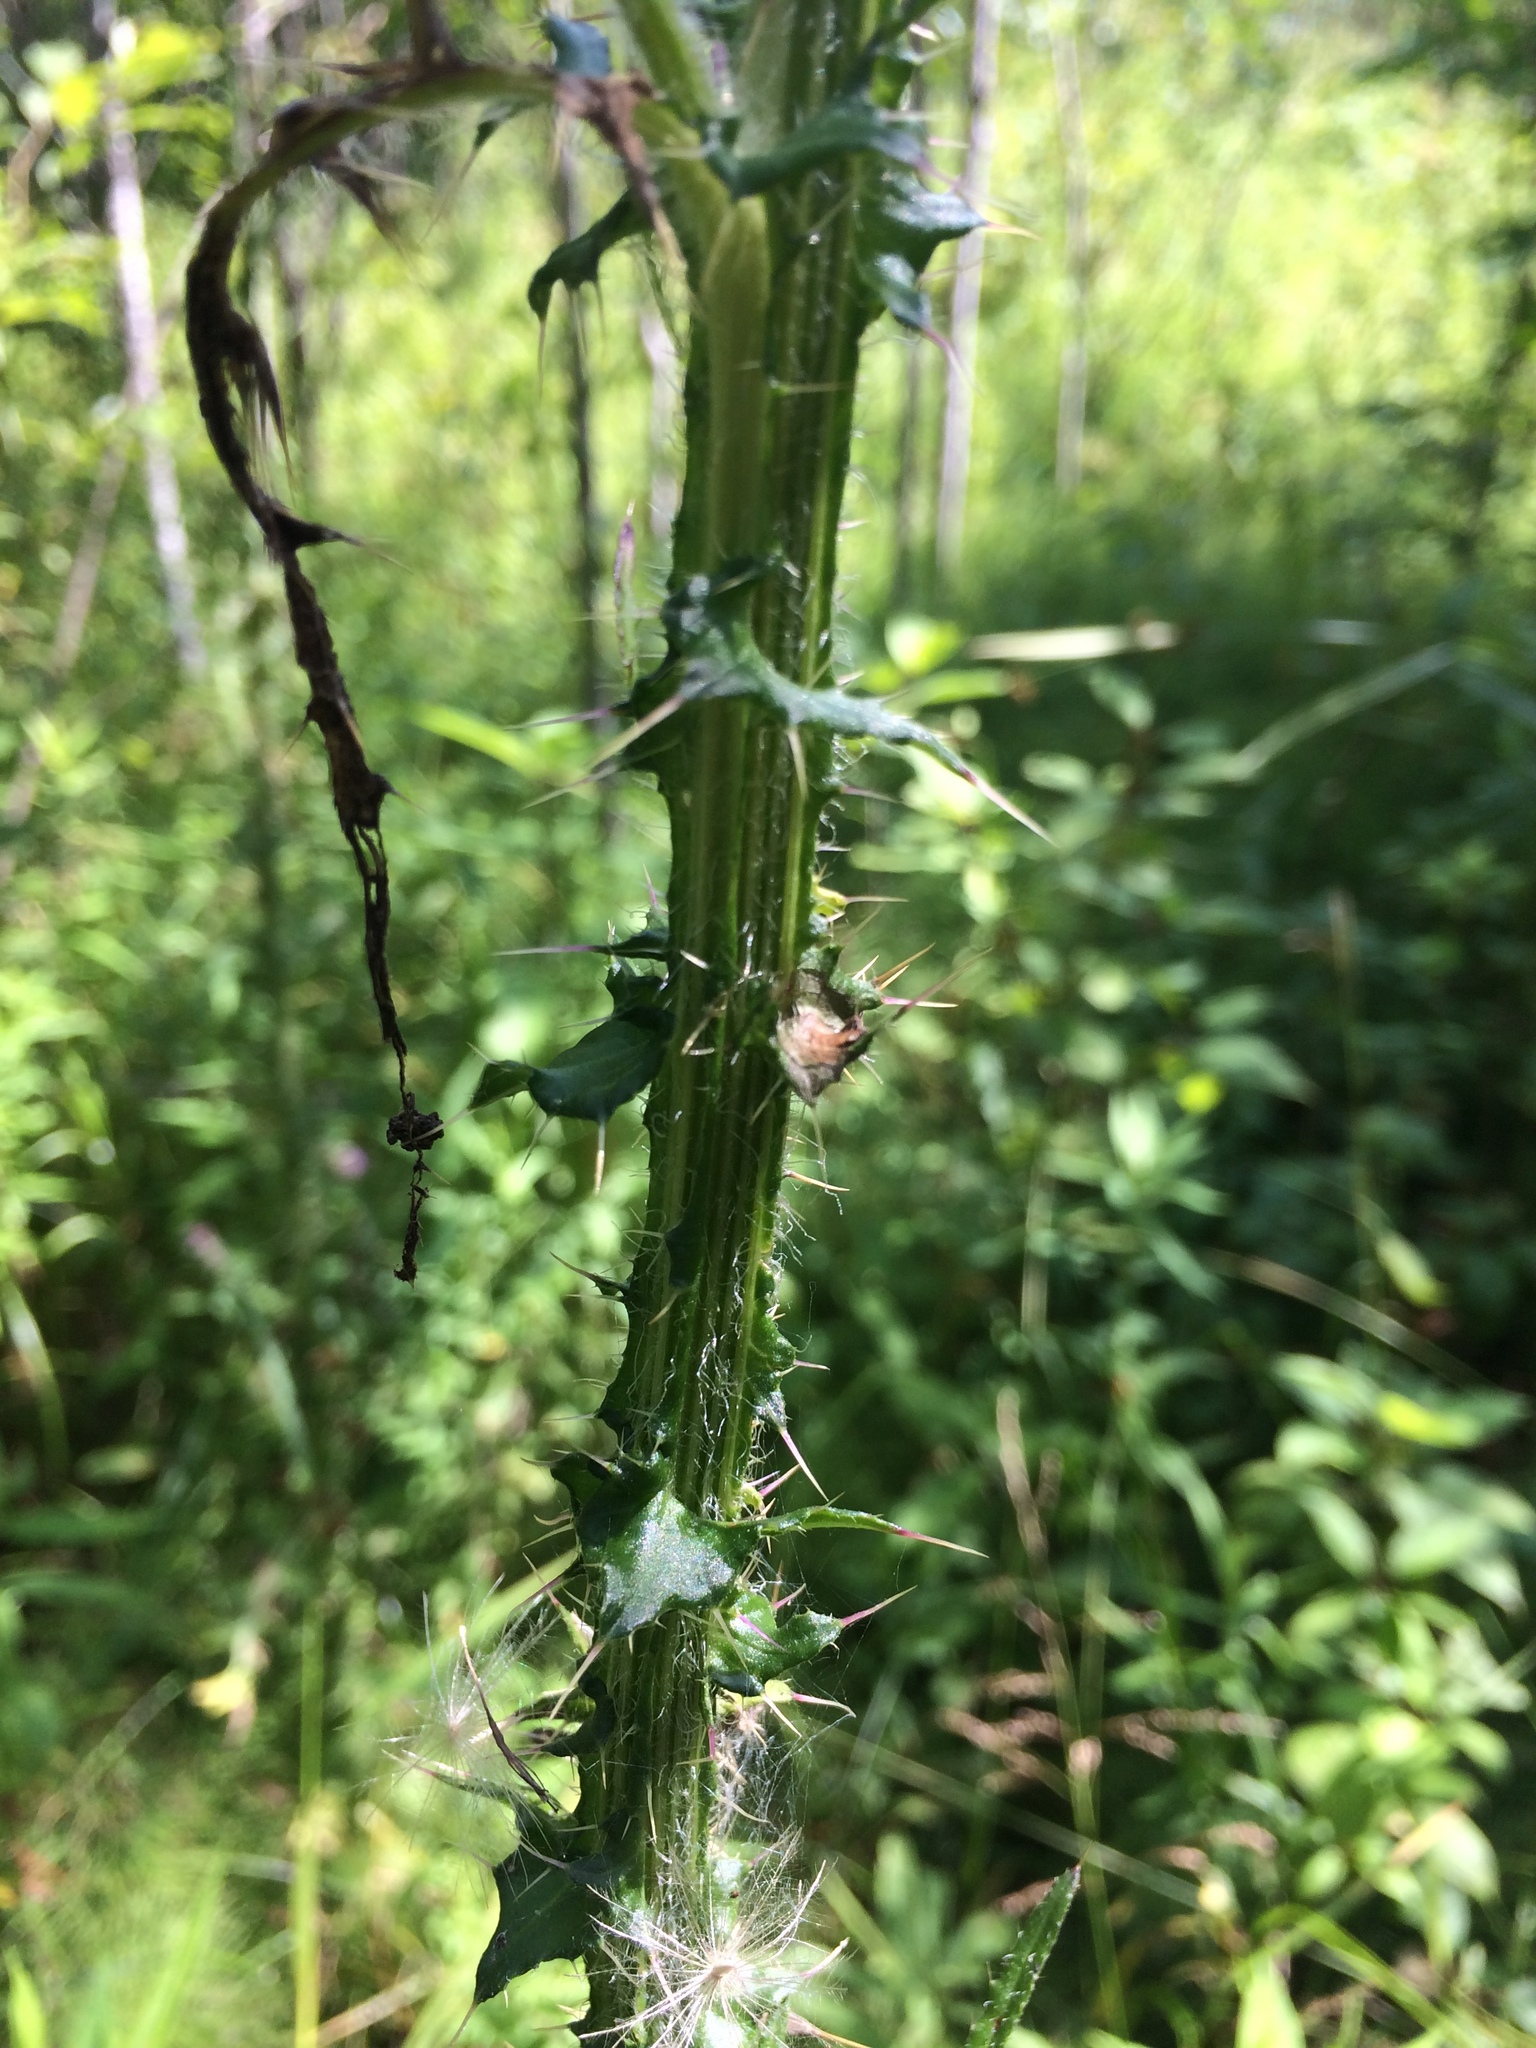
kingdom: Plantae
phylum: Tracheophyta
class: Magnoliopsida
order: Asterales
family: Asteraceae
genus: Cirsium
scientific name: Cirsium palustre
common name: Marsh thistle
